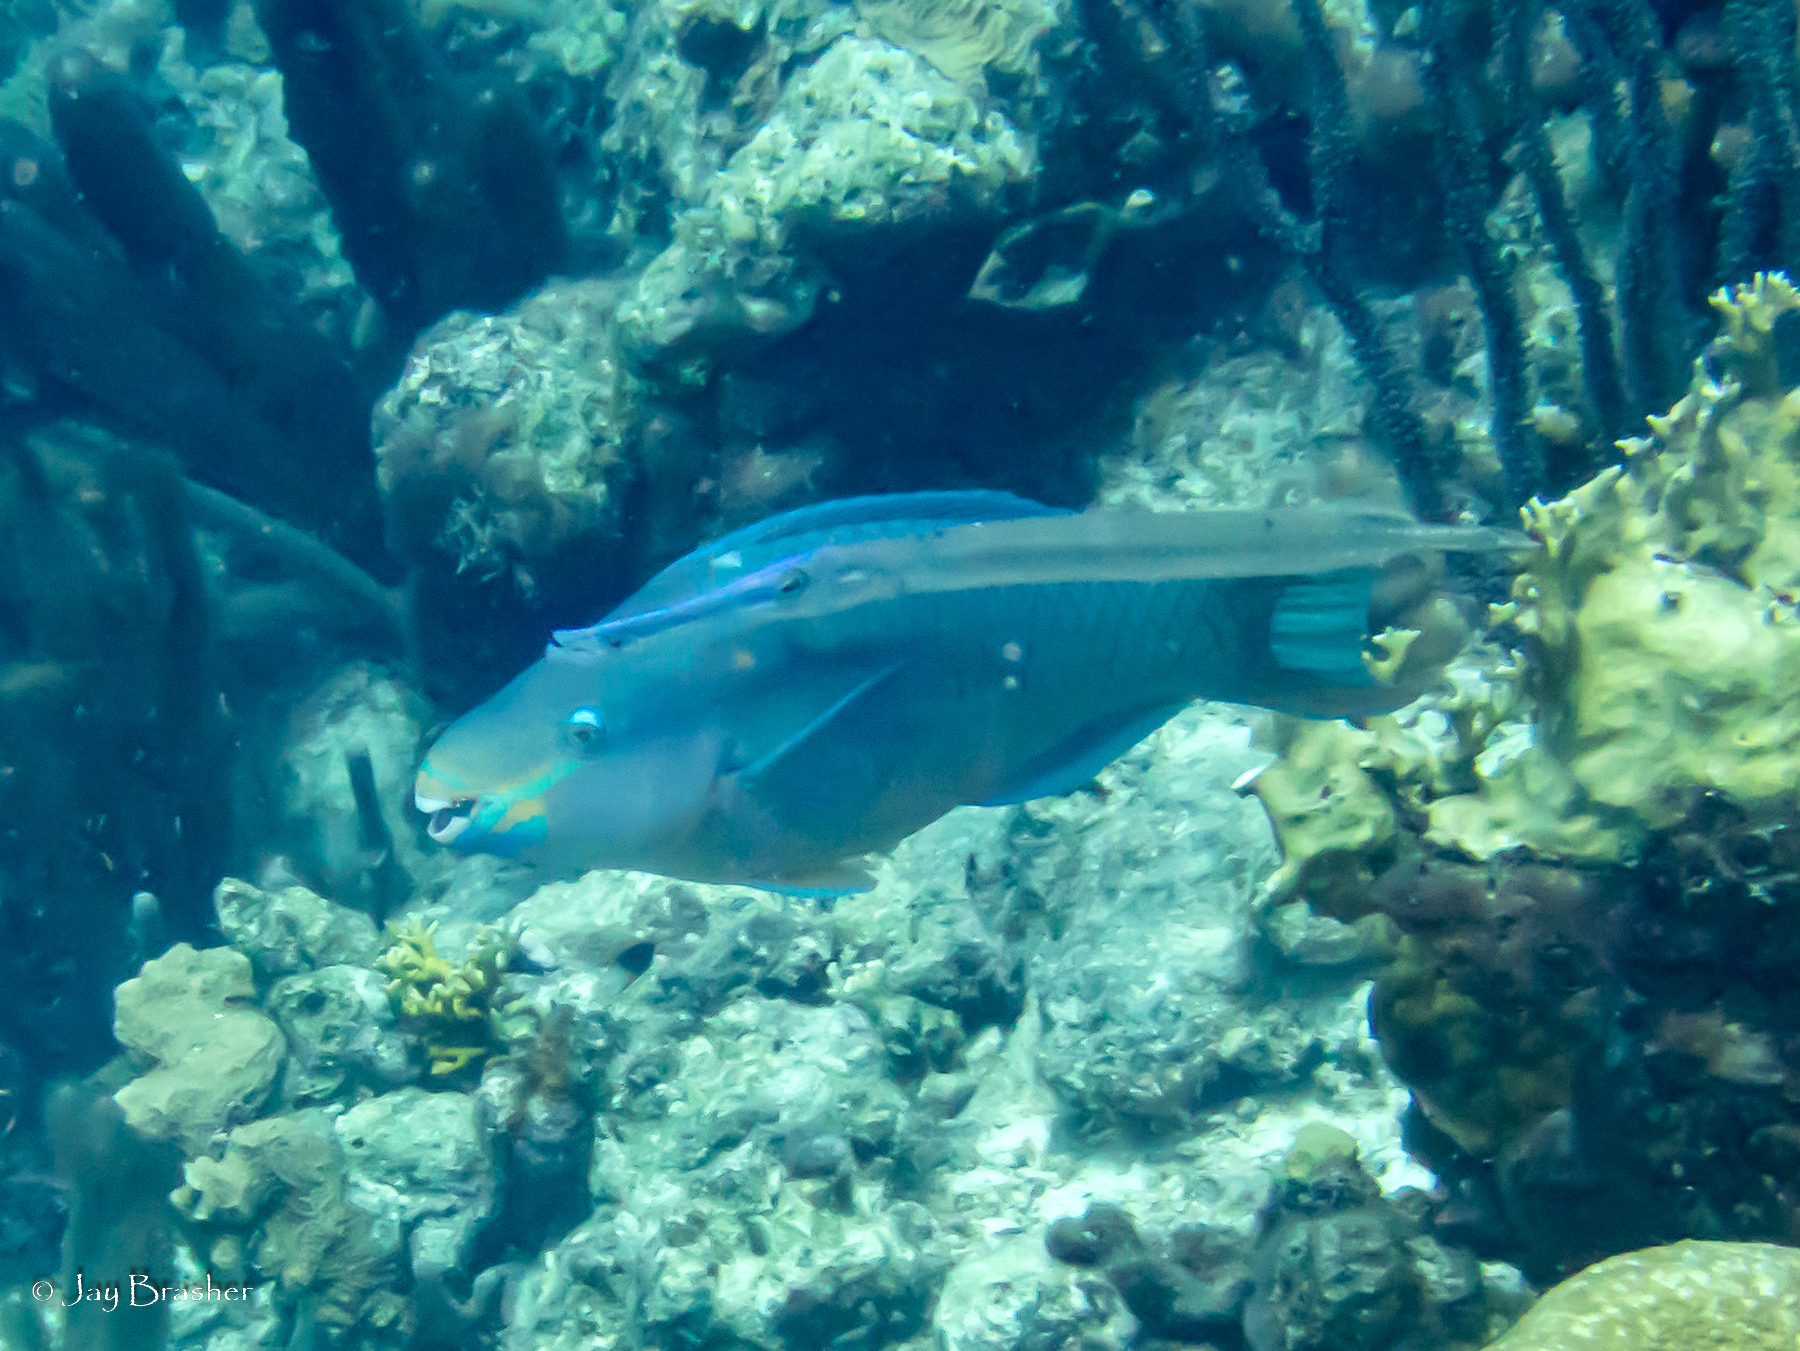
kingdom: Animalia
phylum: Chordata
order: Syngnathiformes
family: Aulostomidae
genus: Aulostomus
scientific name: Aulostomus maculatus
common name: West atlantic trumpetfish
